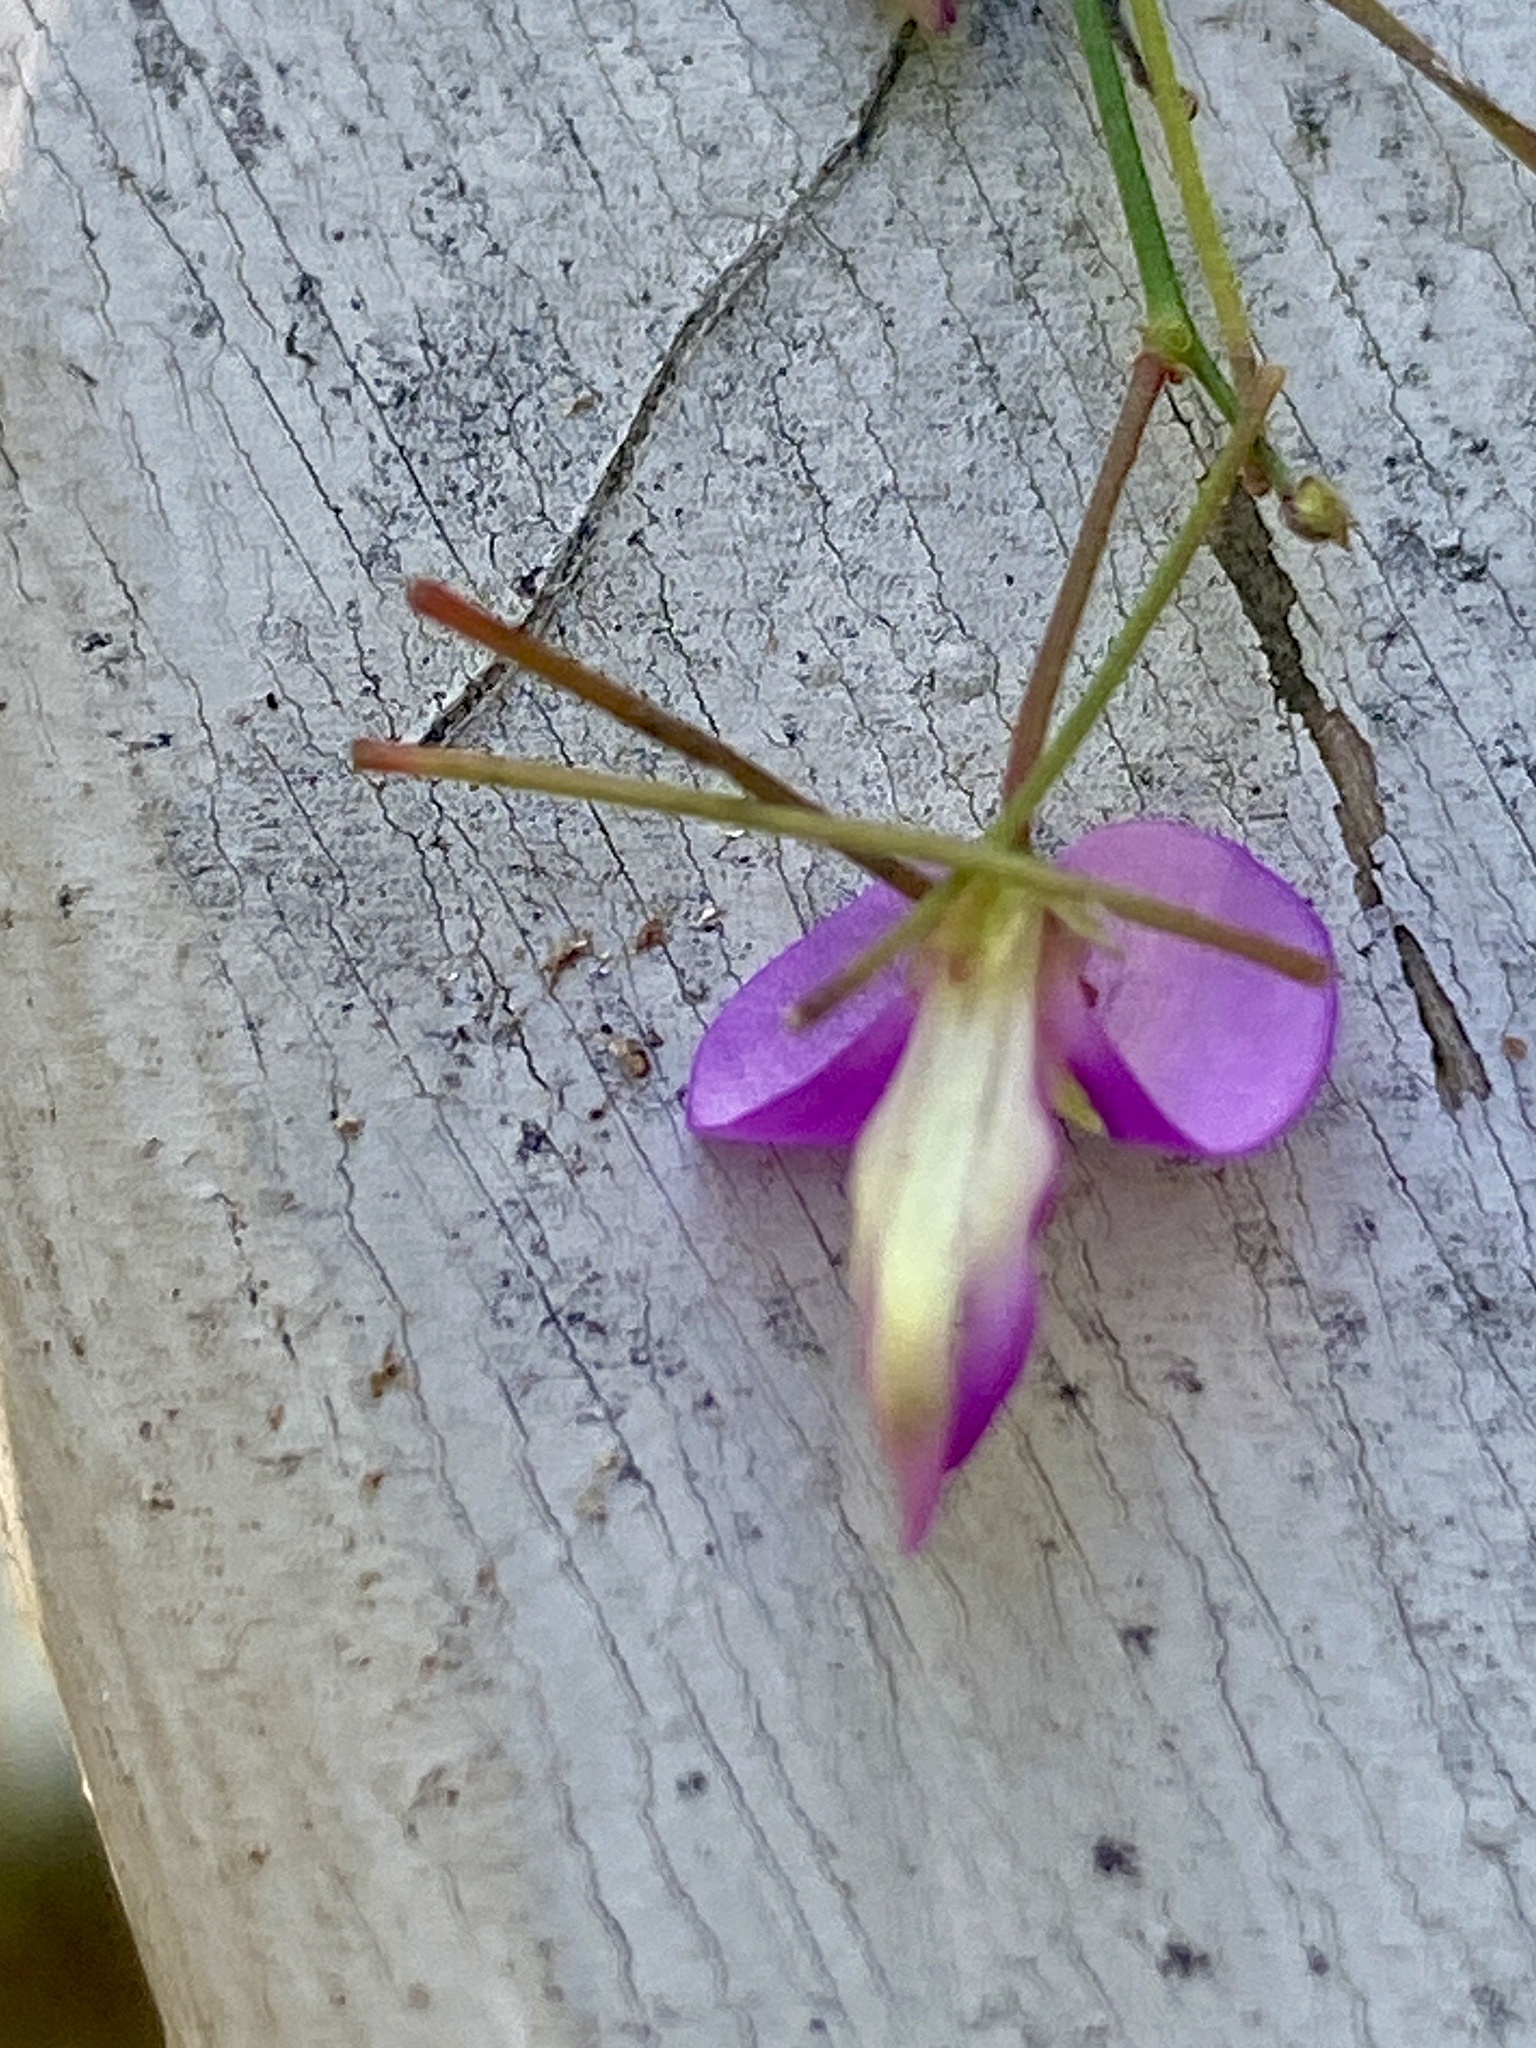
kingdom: Plantae
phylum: Tracheophyta
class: Magnoliopsida
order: Fabales
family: Fabaceae
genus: Desmodium
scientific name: Desmodium paniculatum
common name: Panicled tick-clover
